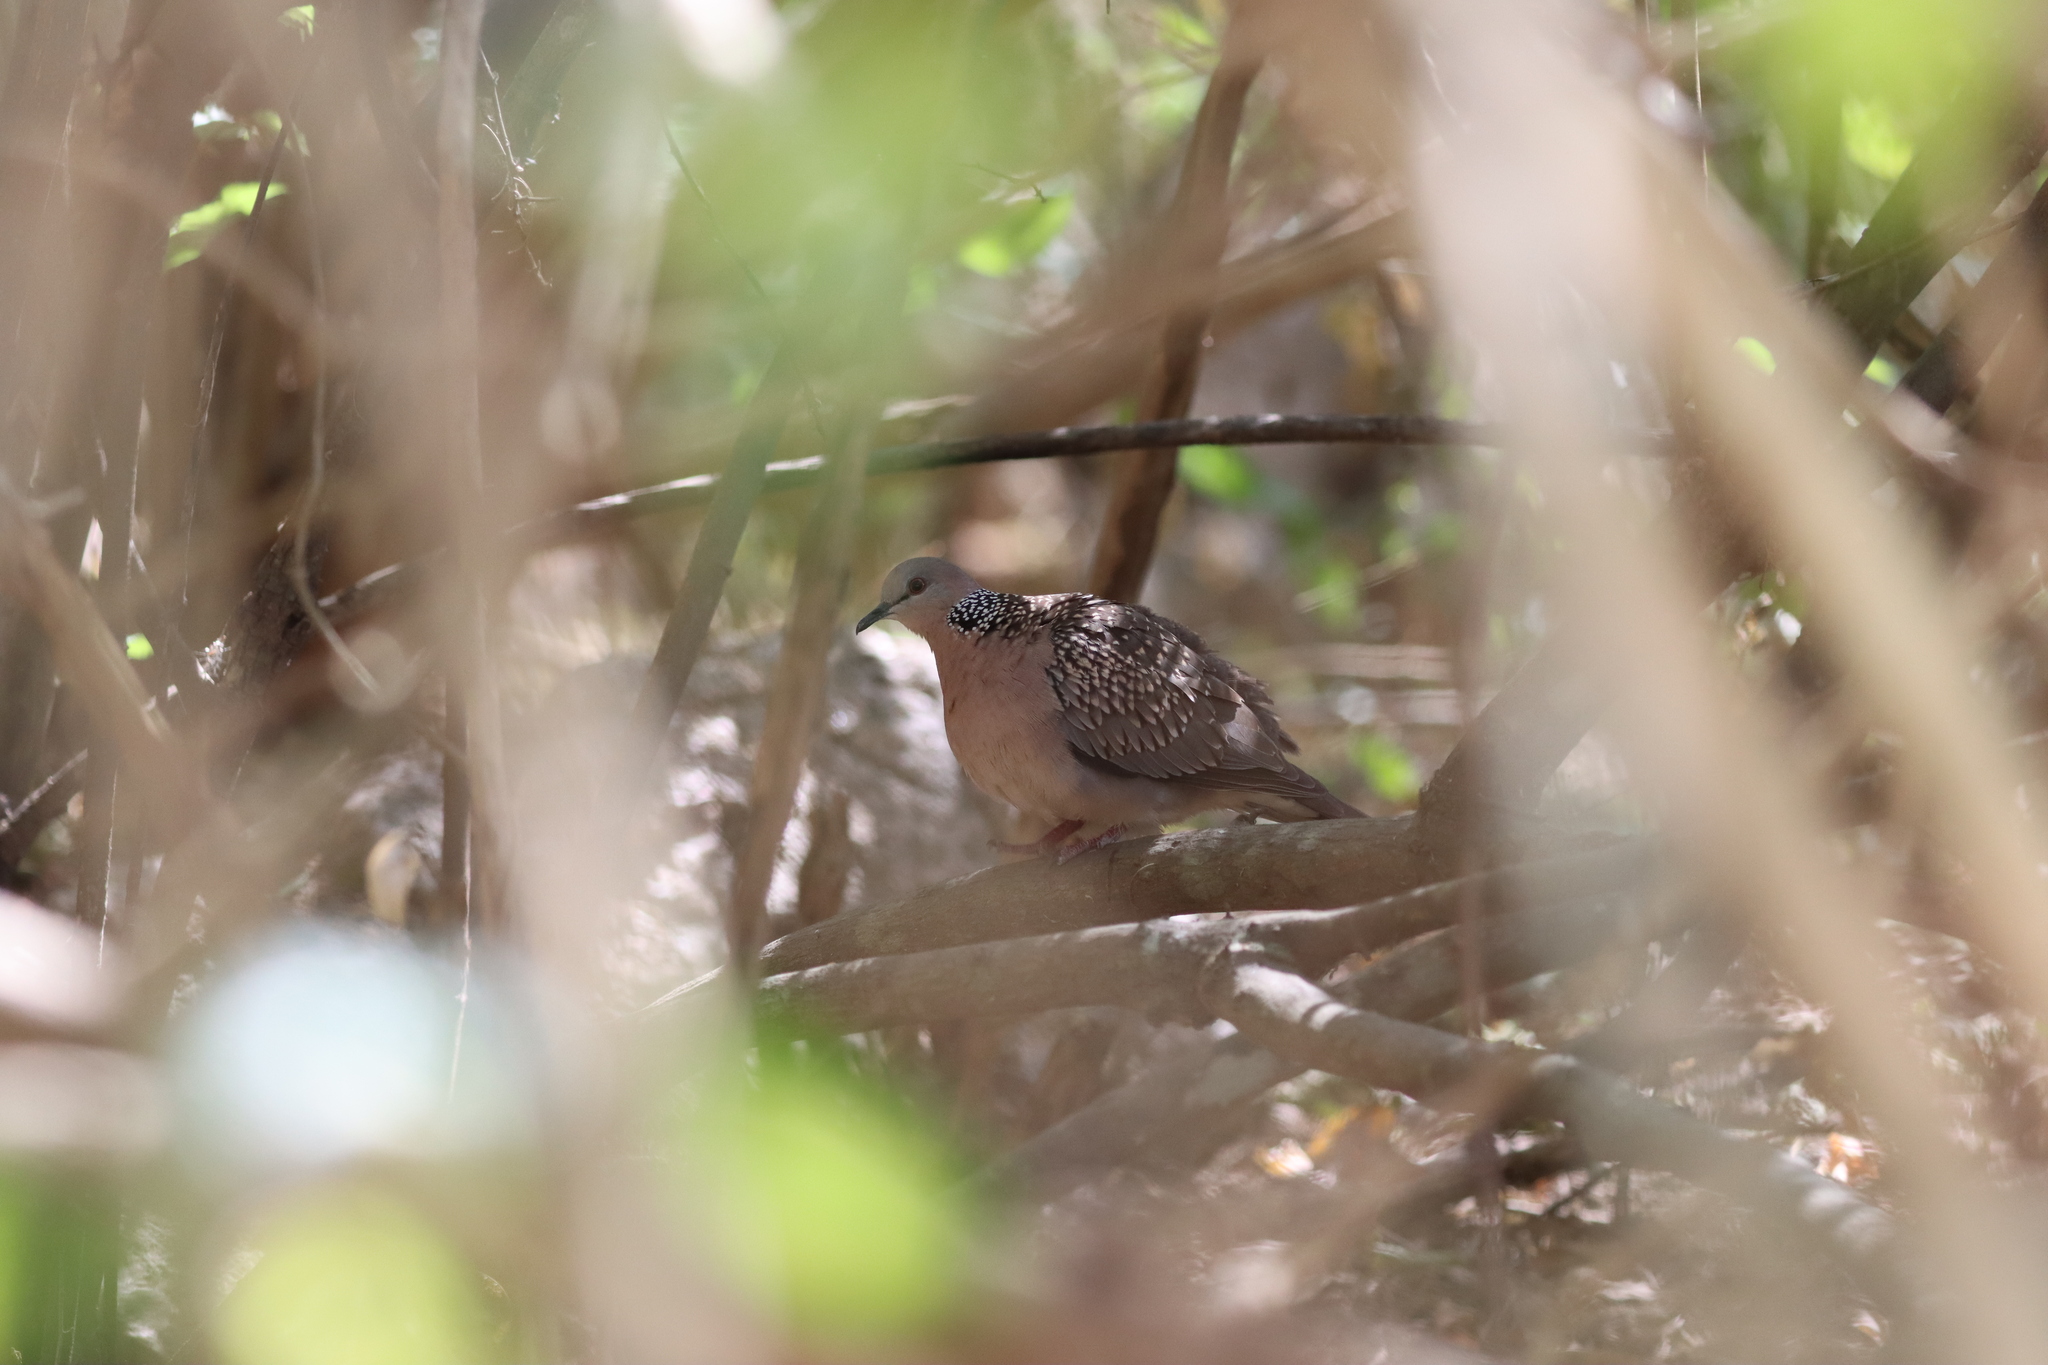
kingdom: Animalia
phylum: Chordata
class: Aves
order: Columbiformes
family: Columbidae
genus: Spilopelia
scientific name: Spilopelia chinensis
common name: Spotted dove
